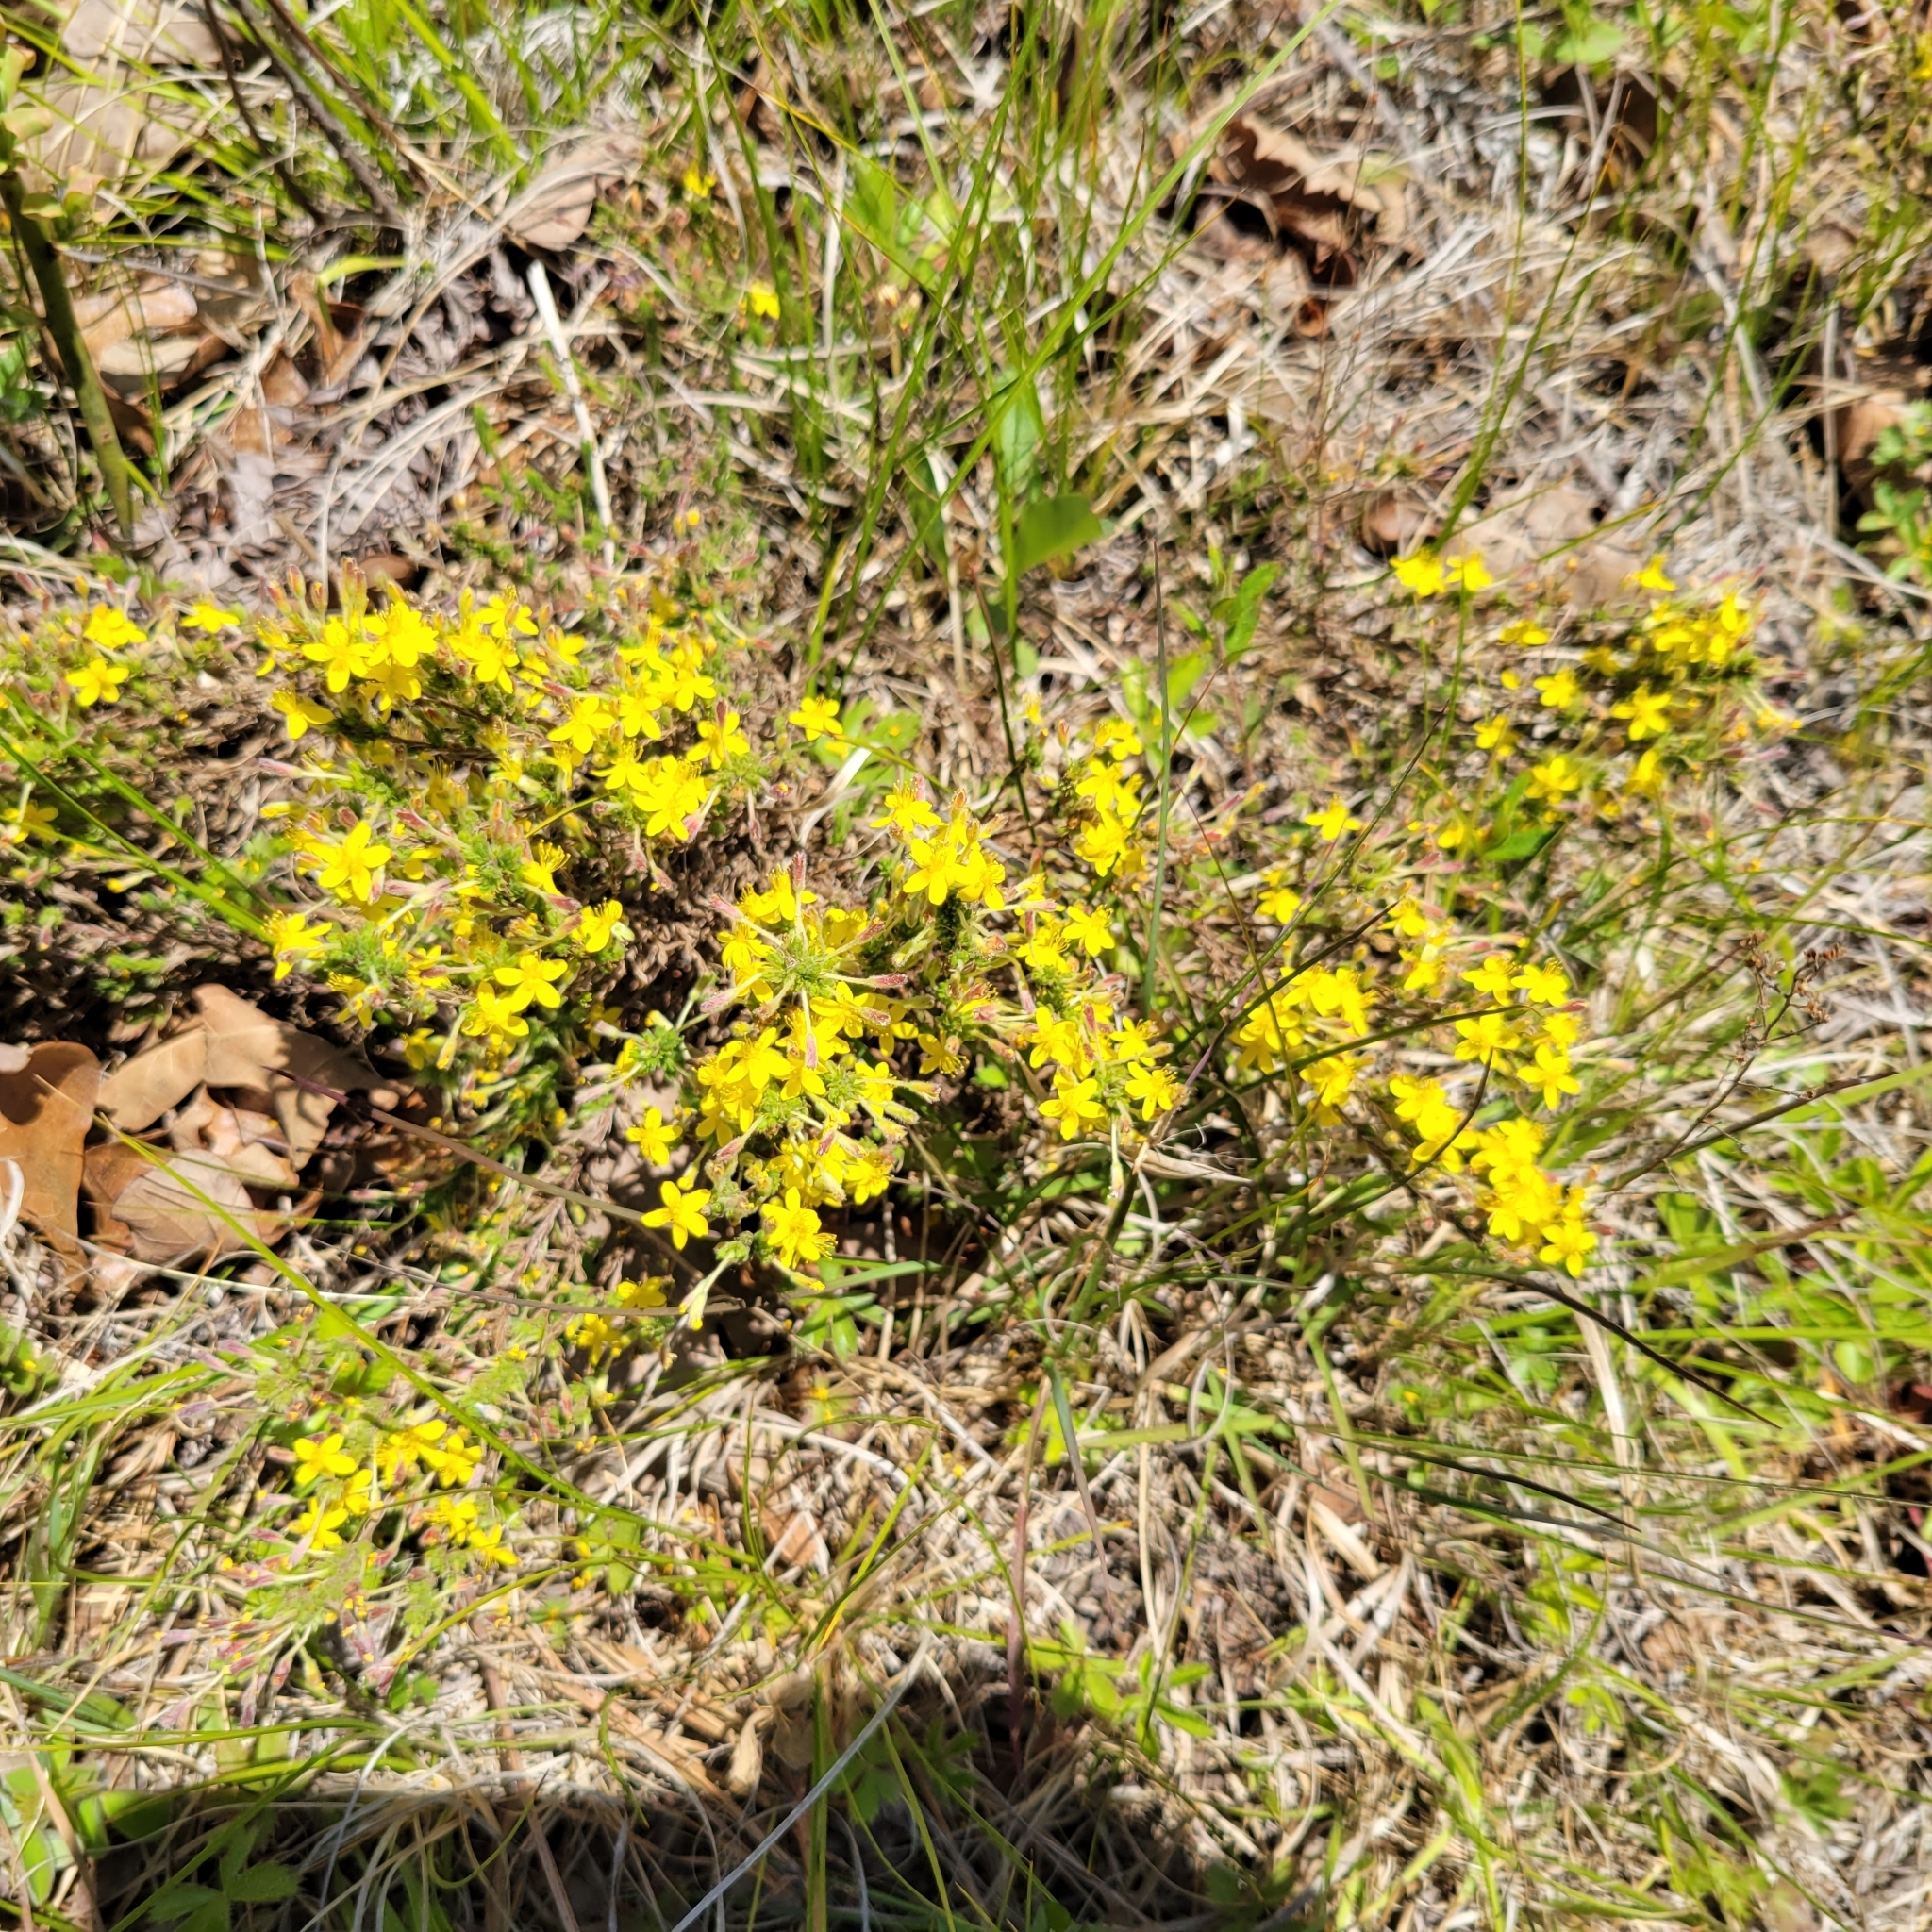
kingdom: Plantae
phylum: Tracheophyta
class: Magnoliopsida
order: Malvales
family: Cistaceae
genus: Hudsonia
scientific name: Hudsonia ericoides
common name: Golden-heather
